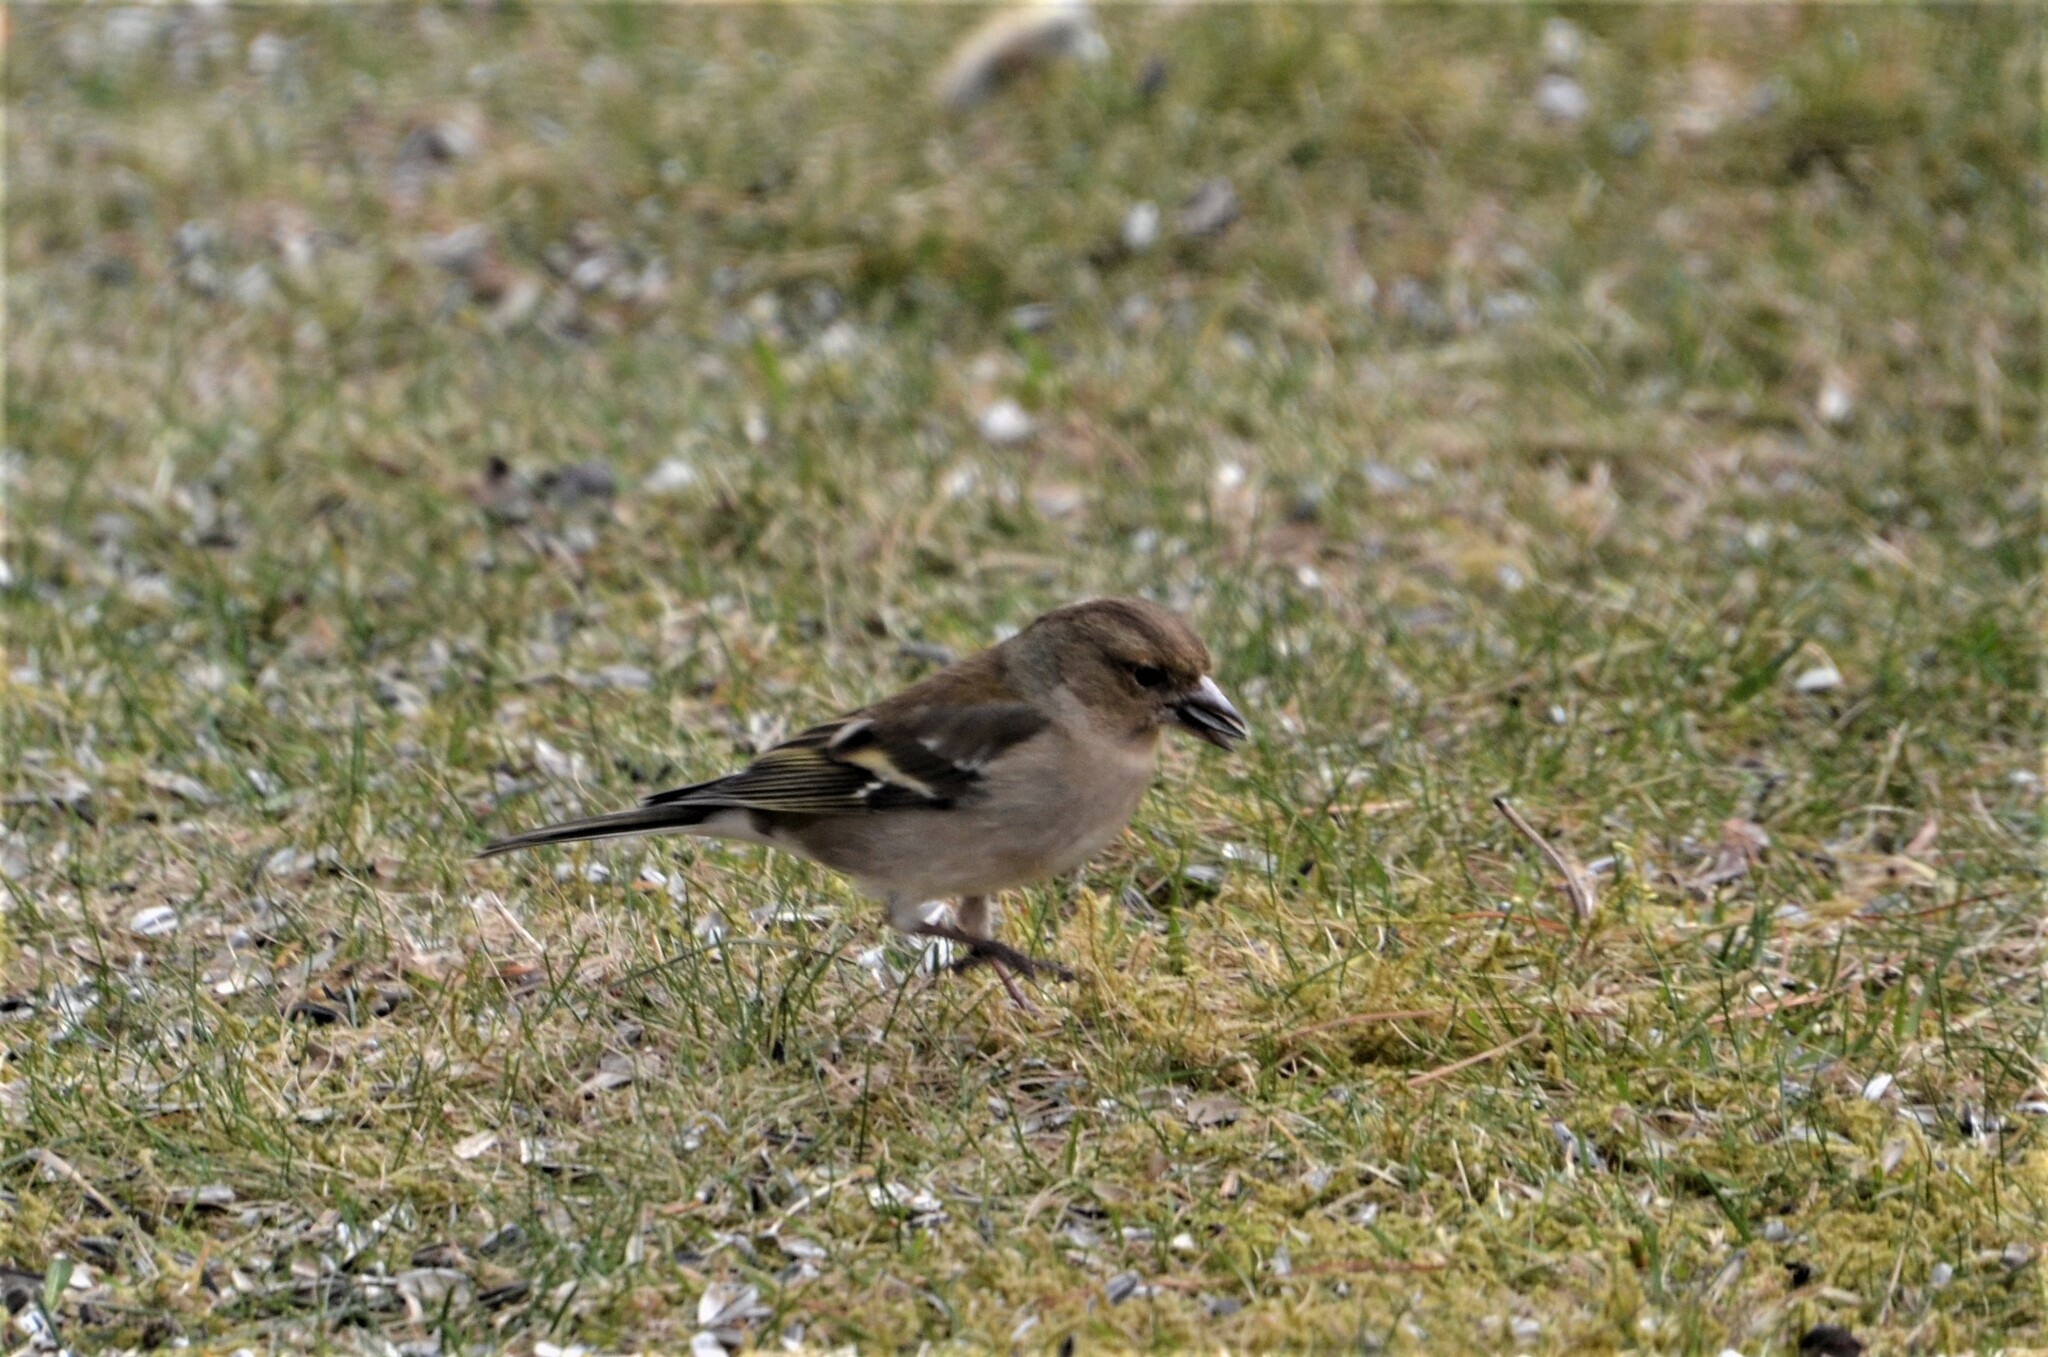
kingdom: Animalia
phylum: Chordata
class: Aves
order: Passeriformes
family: Fringillidae
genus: Fringilla
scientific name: Fringilla coelebs
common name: Common chaffinch
